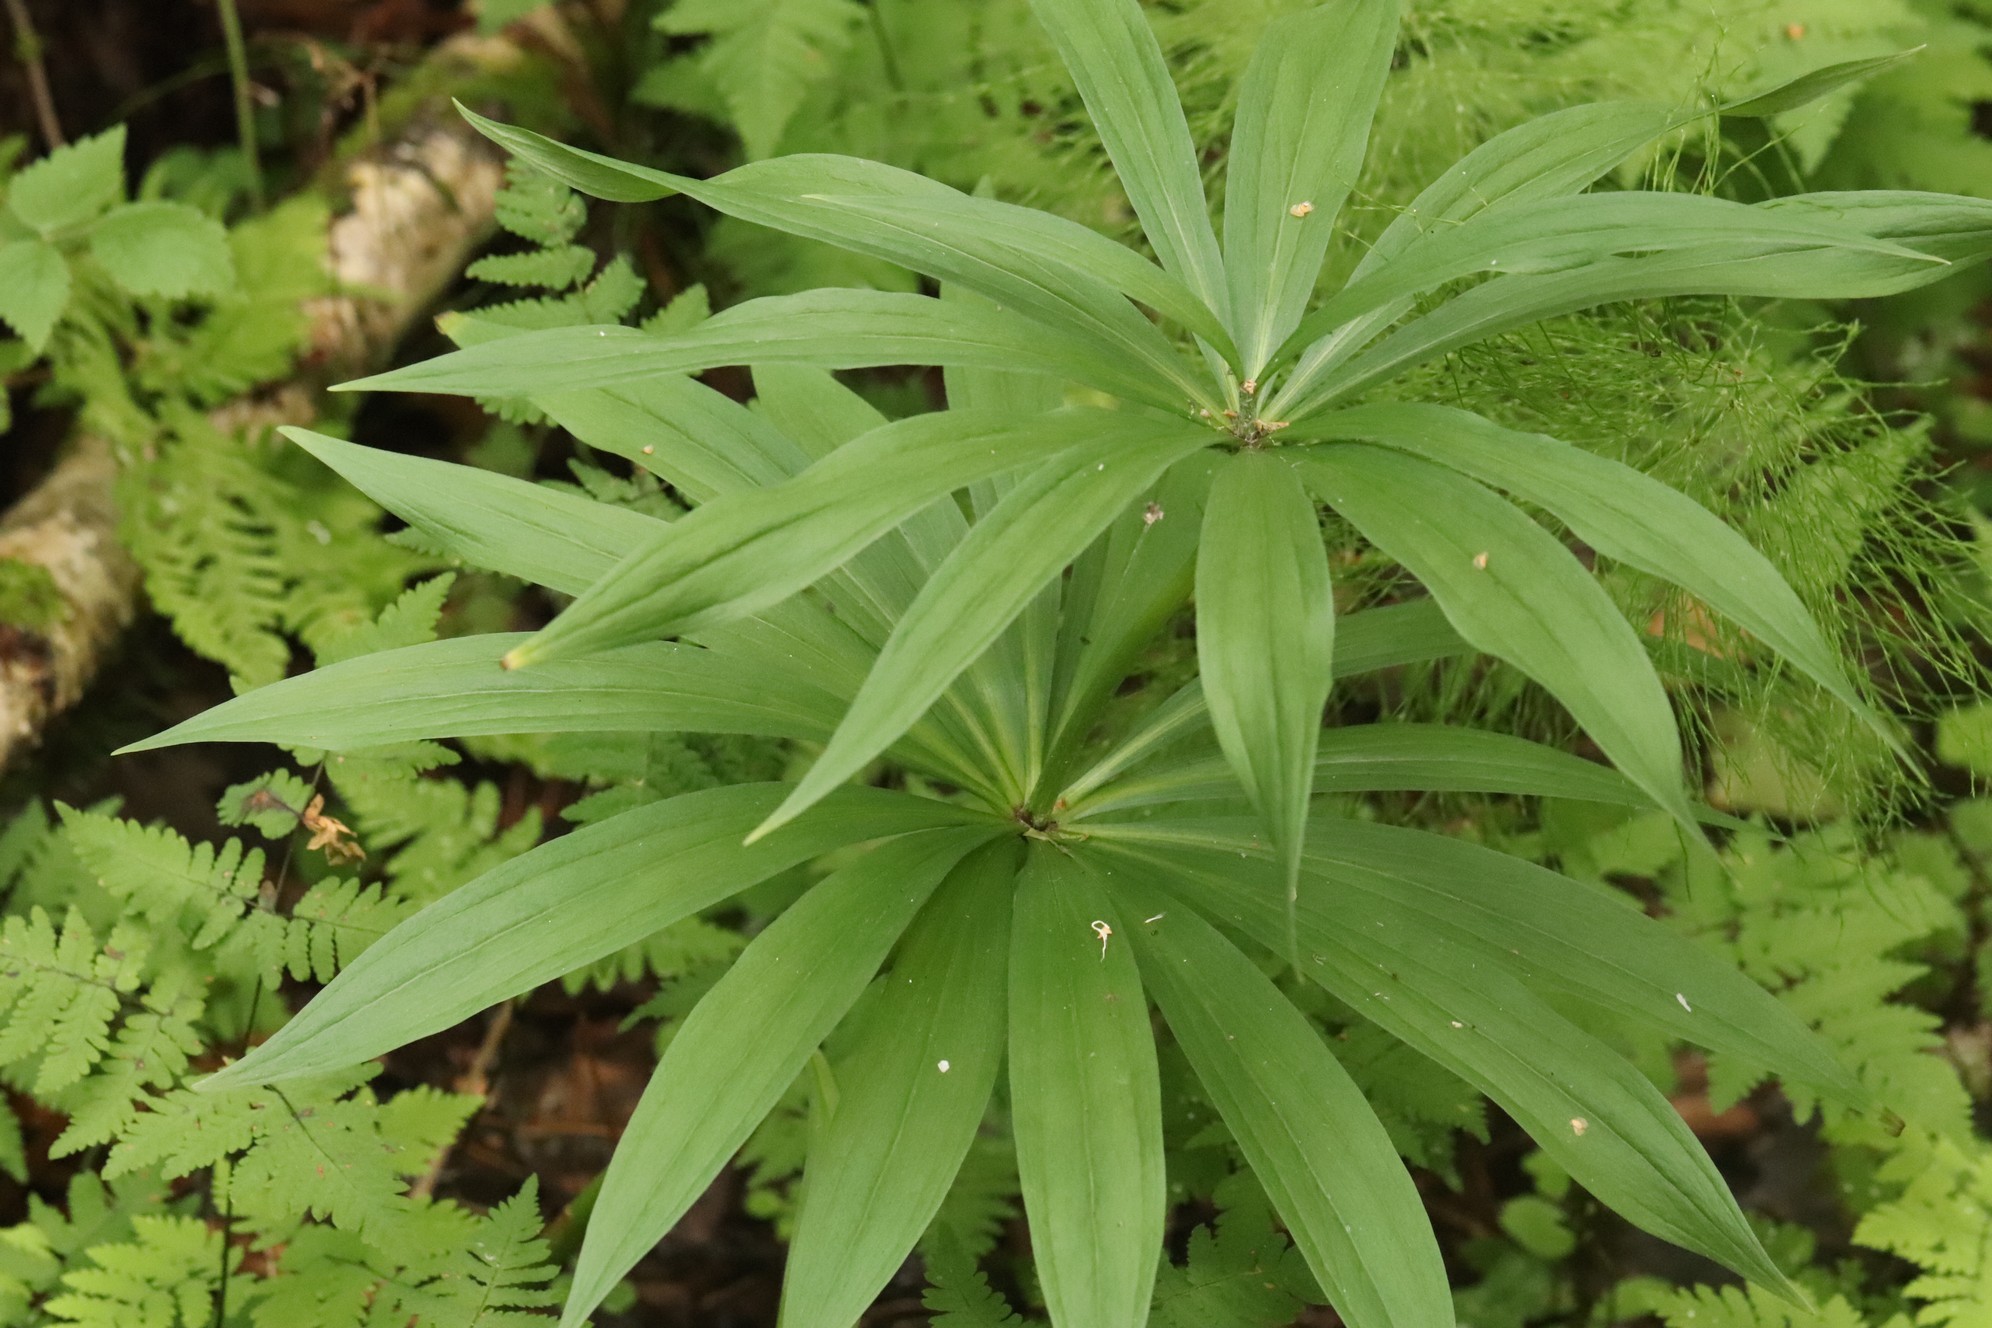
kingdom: Plantae
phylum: Tracheophyta
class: Liliopsida
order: Liliales
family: Liliaceae
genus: Lilium
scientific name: Lilium martagon
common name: Martagon lily
